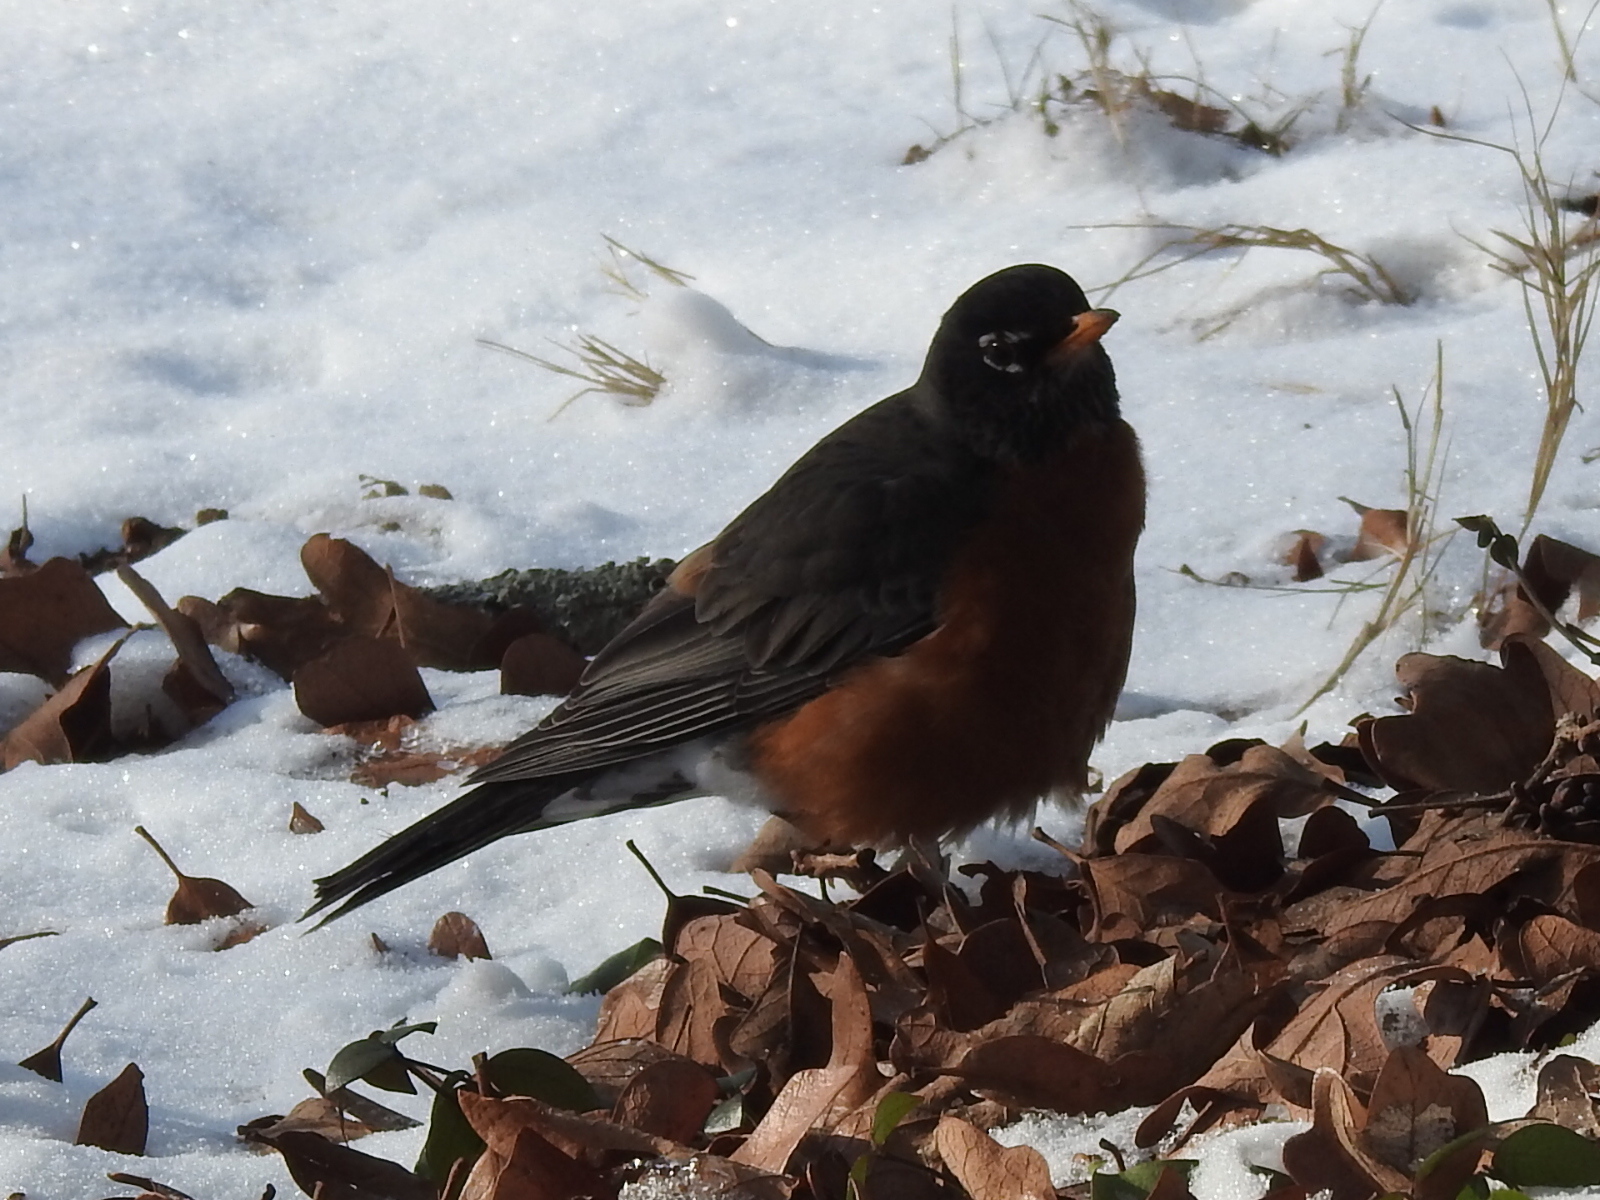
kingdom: Animalia
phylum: Chordata
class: Aves
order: Passeriformes
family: Turdidae
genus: Turdus
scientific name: Turdus migratorius
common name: American robin
